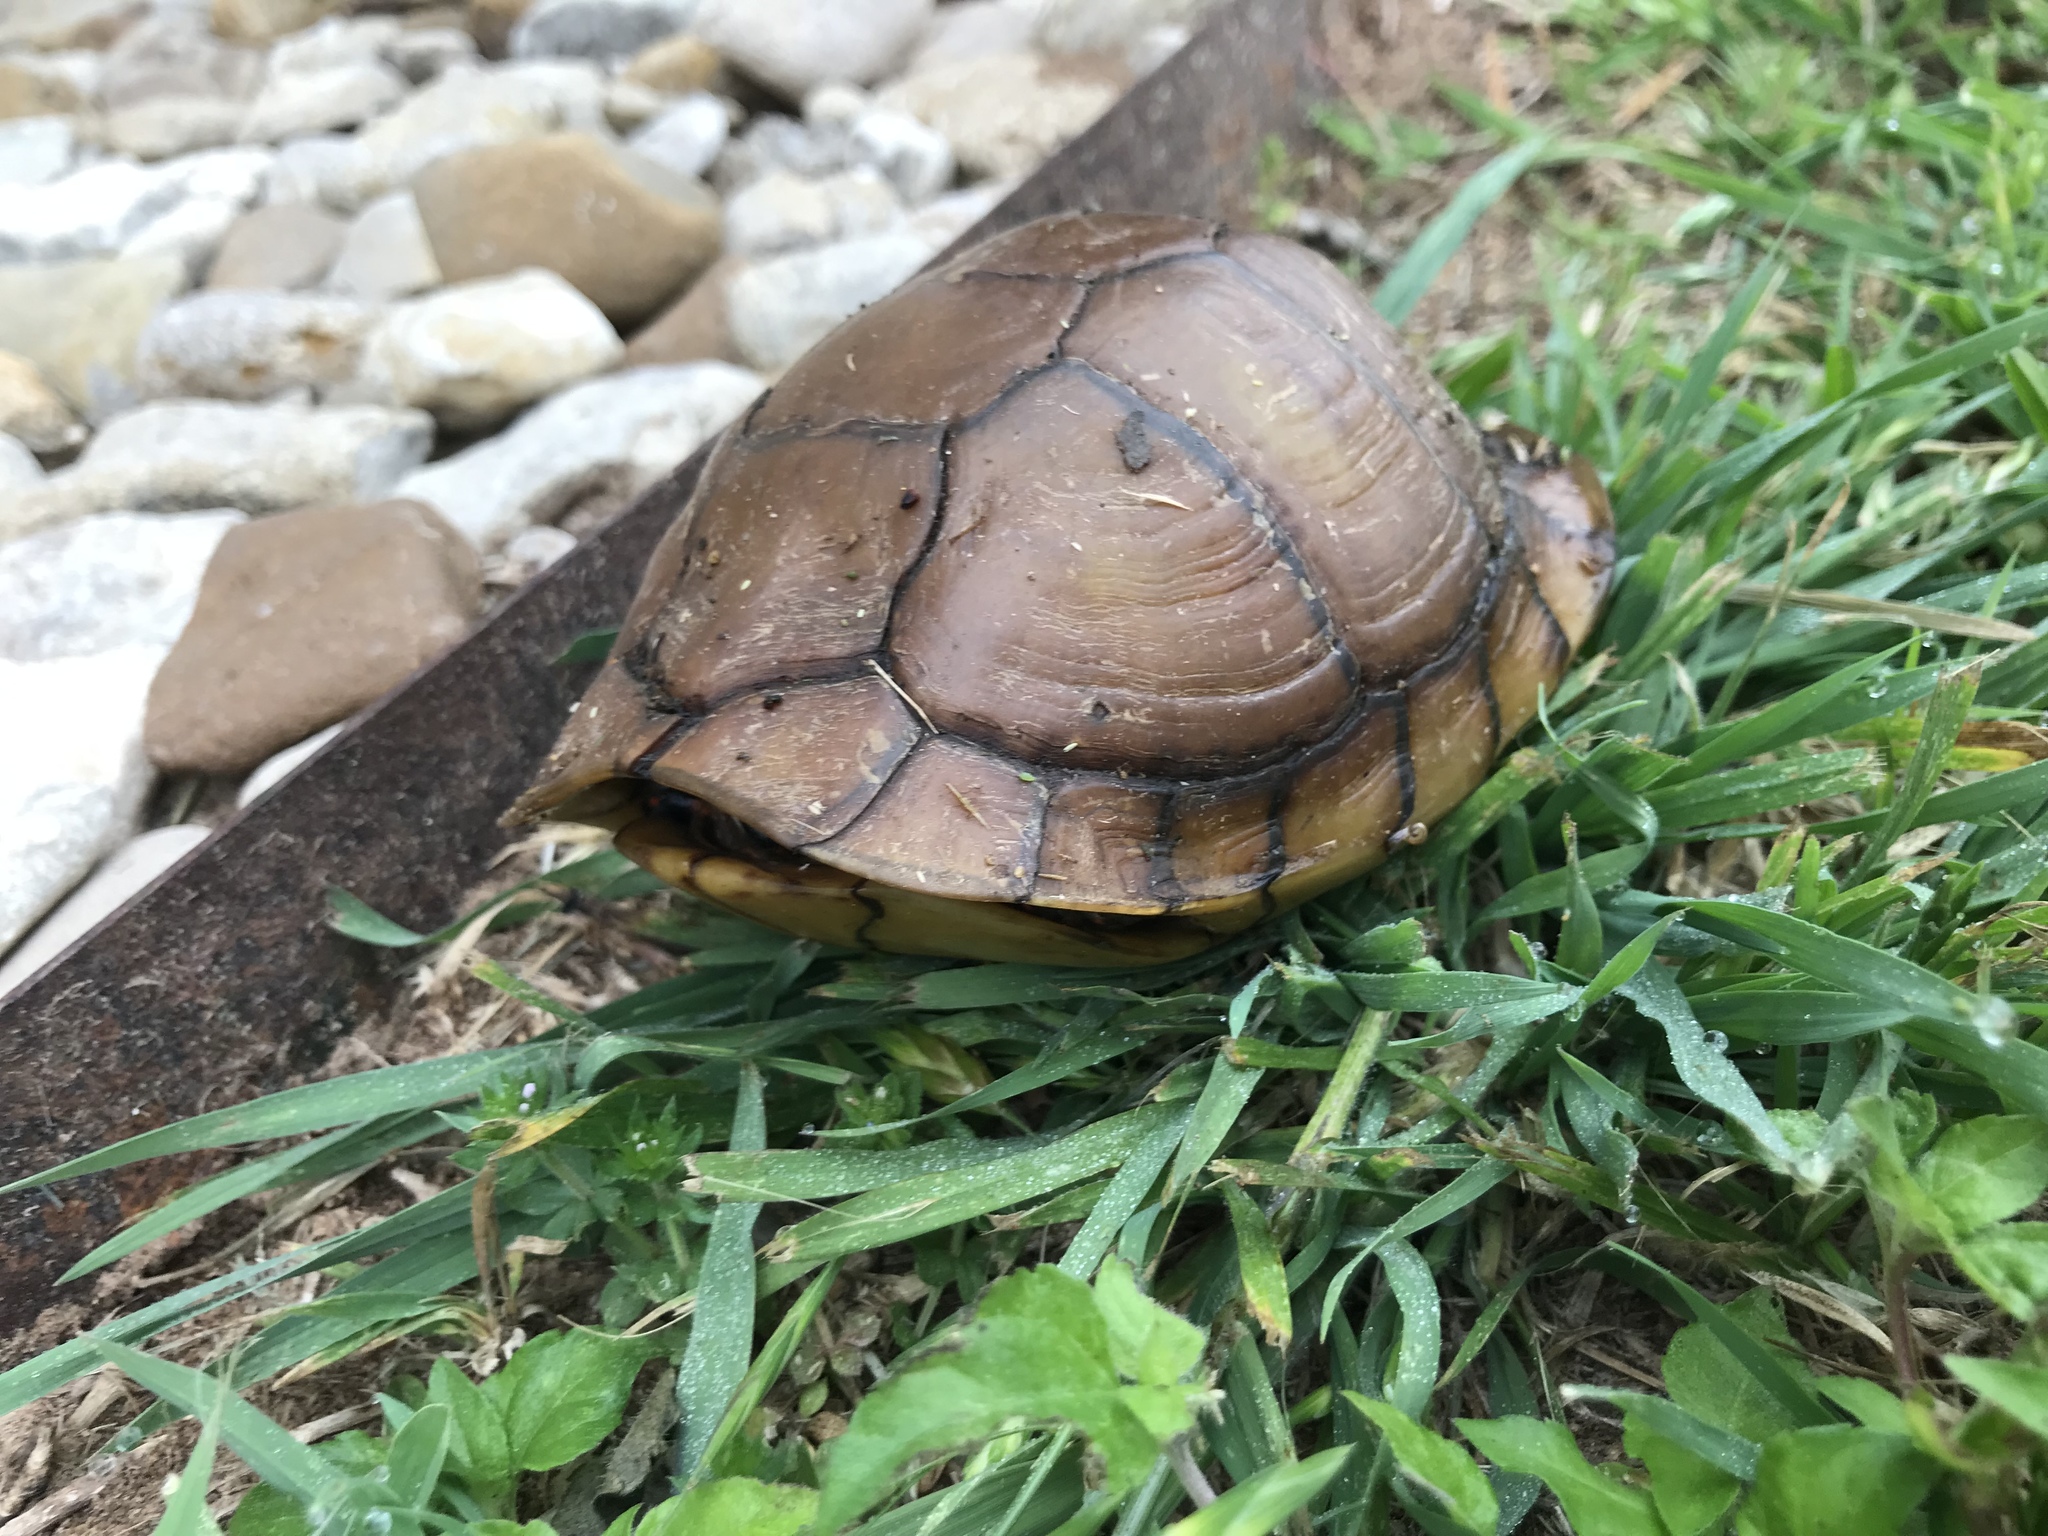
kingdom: Animalia
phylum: Chordata
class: Testudines
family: Emydidae
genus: Terrapene
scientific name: Terrapene carolina
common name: Common box turtle
